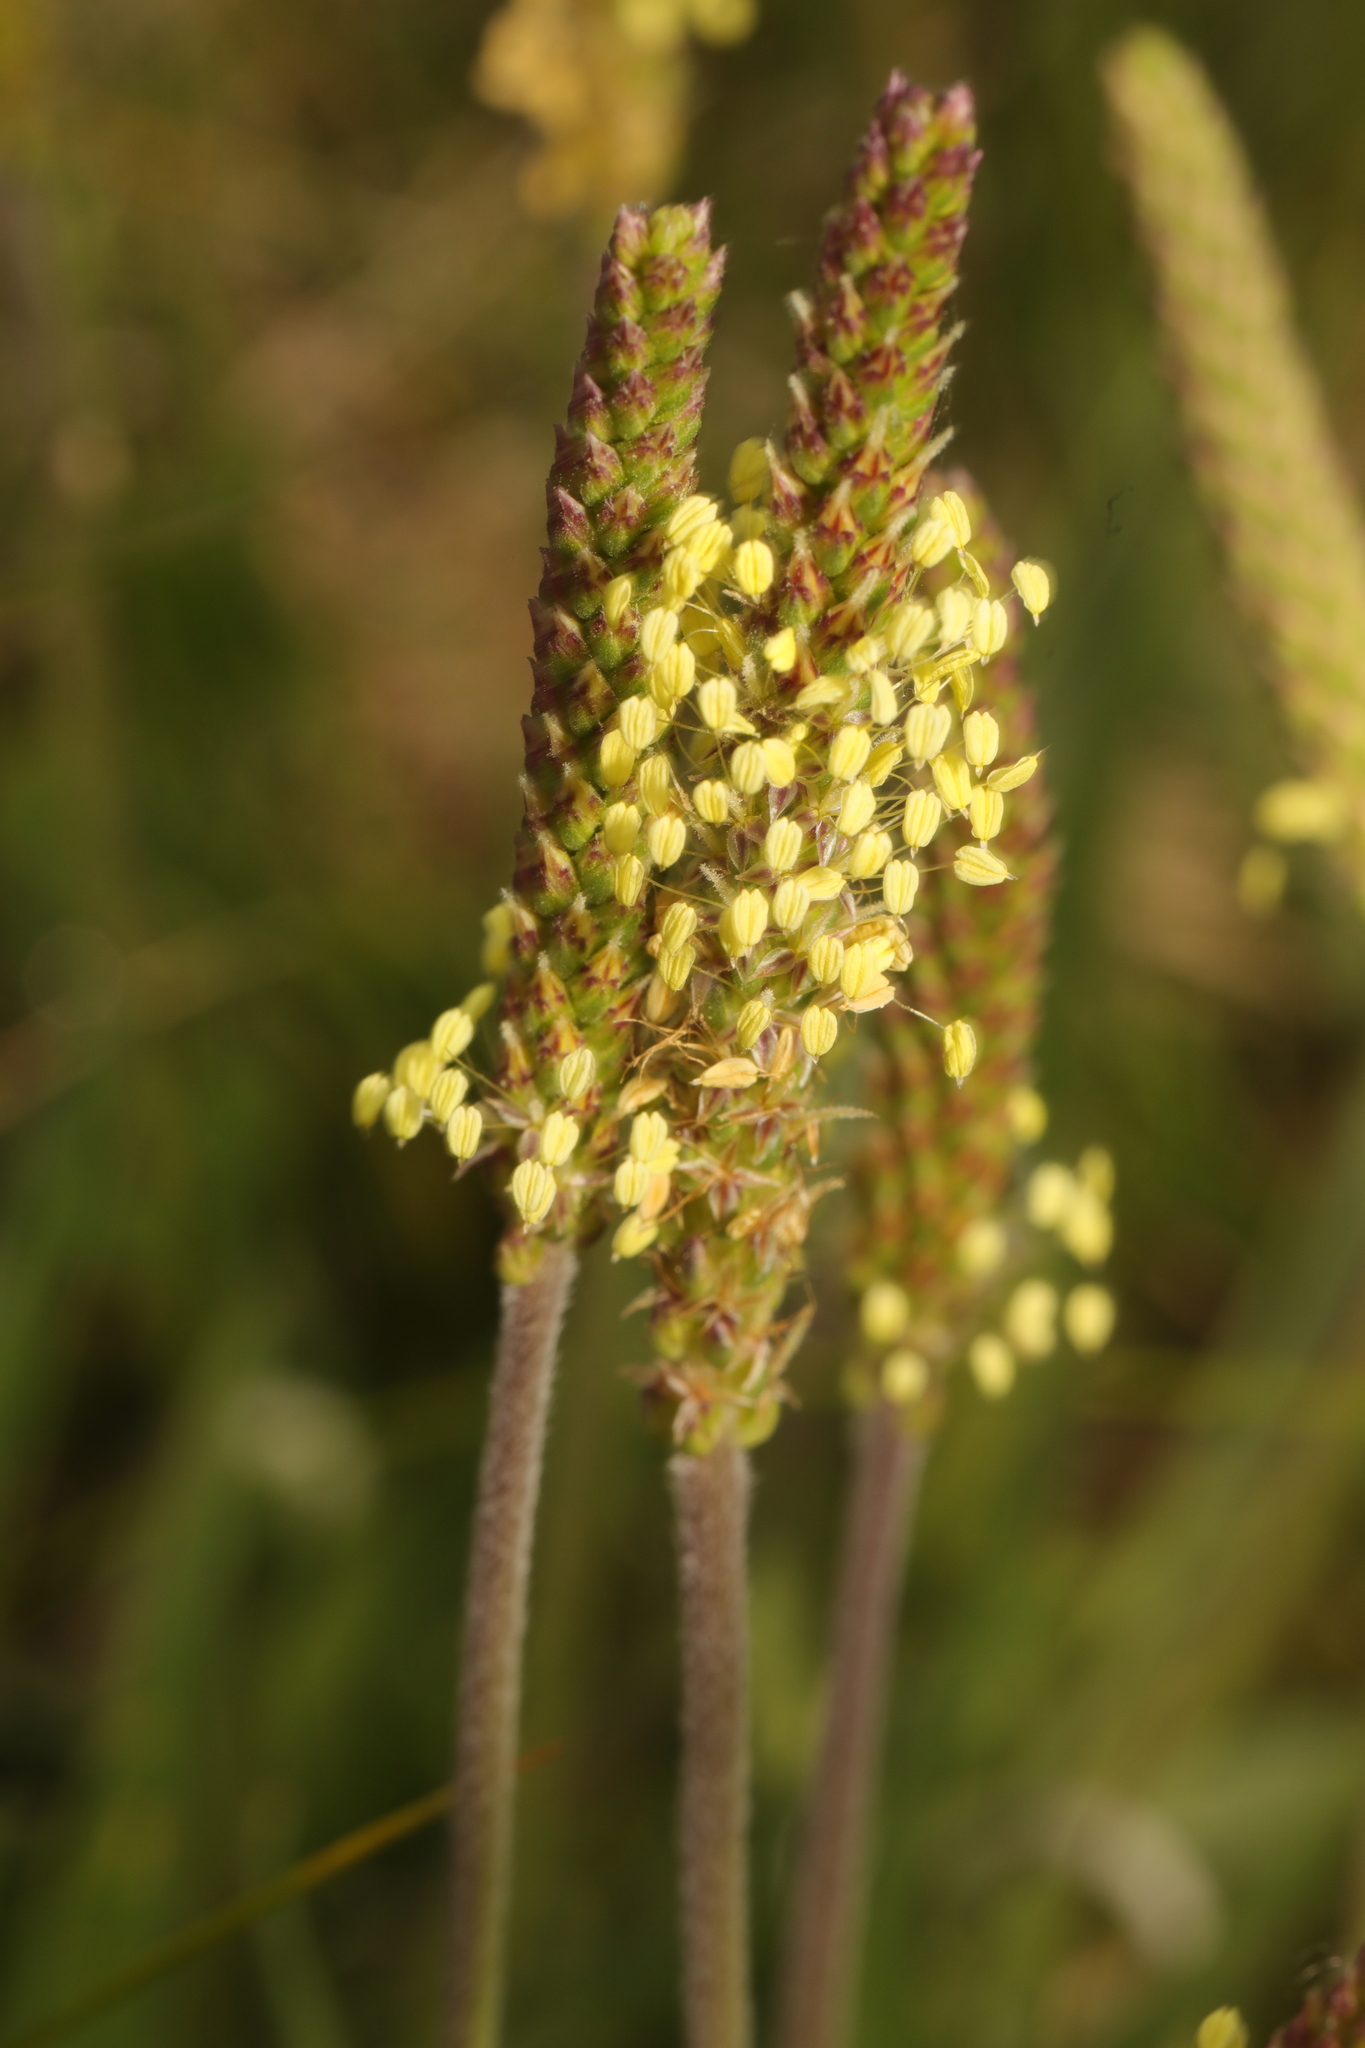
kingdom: Plantae
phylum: Tracheophyta
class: Magnoliopsida
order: Lamiales
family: Plantaginaceae
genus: Plantago
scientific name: Plantago maritima
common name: Sea plantain
